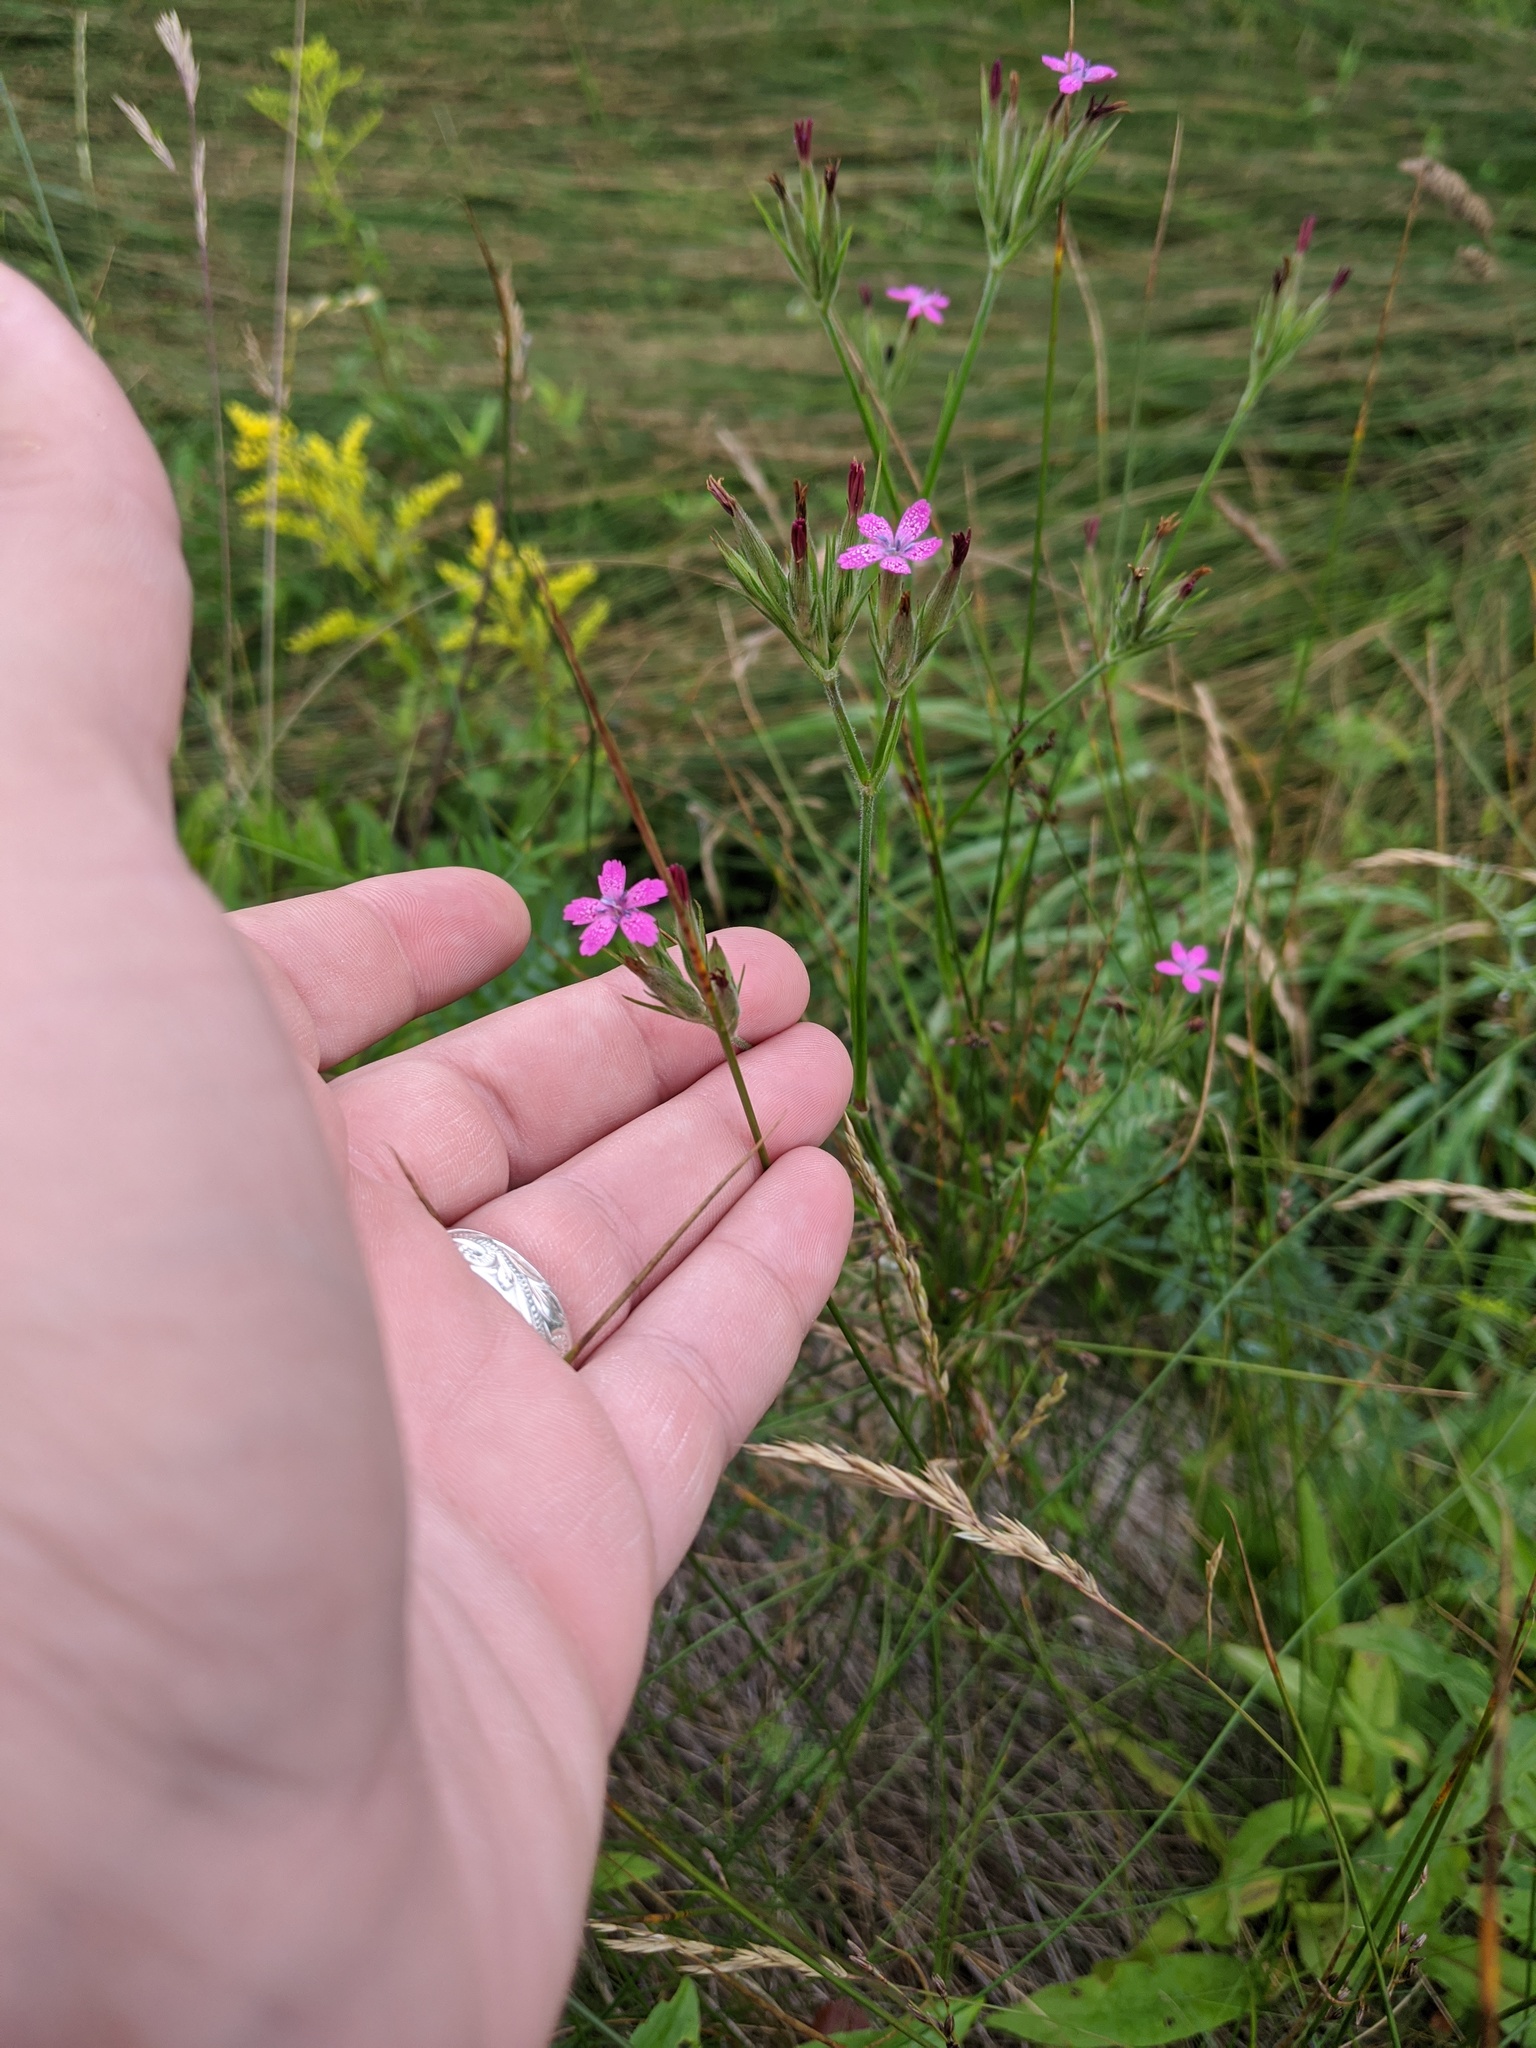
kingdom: Plantae
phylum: Tracheophyta
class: Magnoliopsida
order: Caryophyllales
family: Caryophyllaceae
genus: Dianthus
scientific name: Dianthus armeria
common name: Deptford pink
